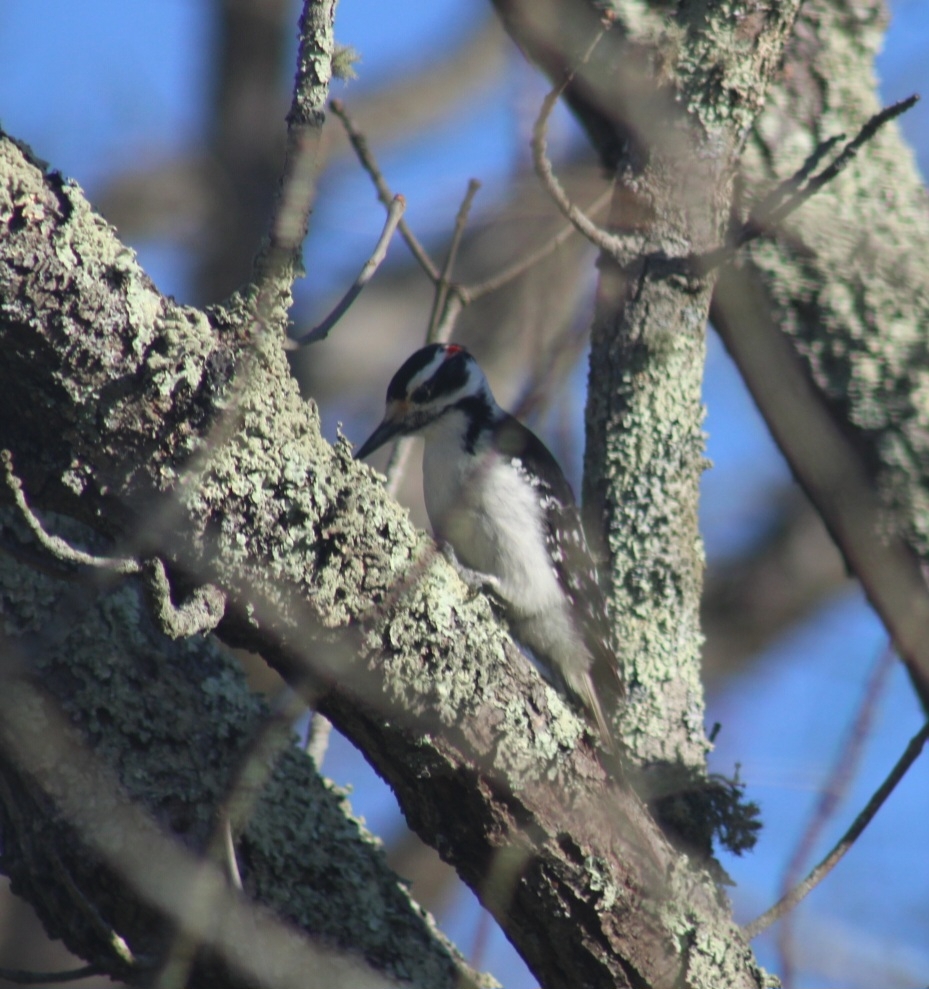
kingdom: Animalia
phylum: Chordata
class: Aves
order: Piciformes
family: Picidae
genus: Leuconotopicus
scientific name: Leuconotopicus villosus
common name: Hairy woodpecker
